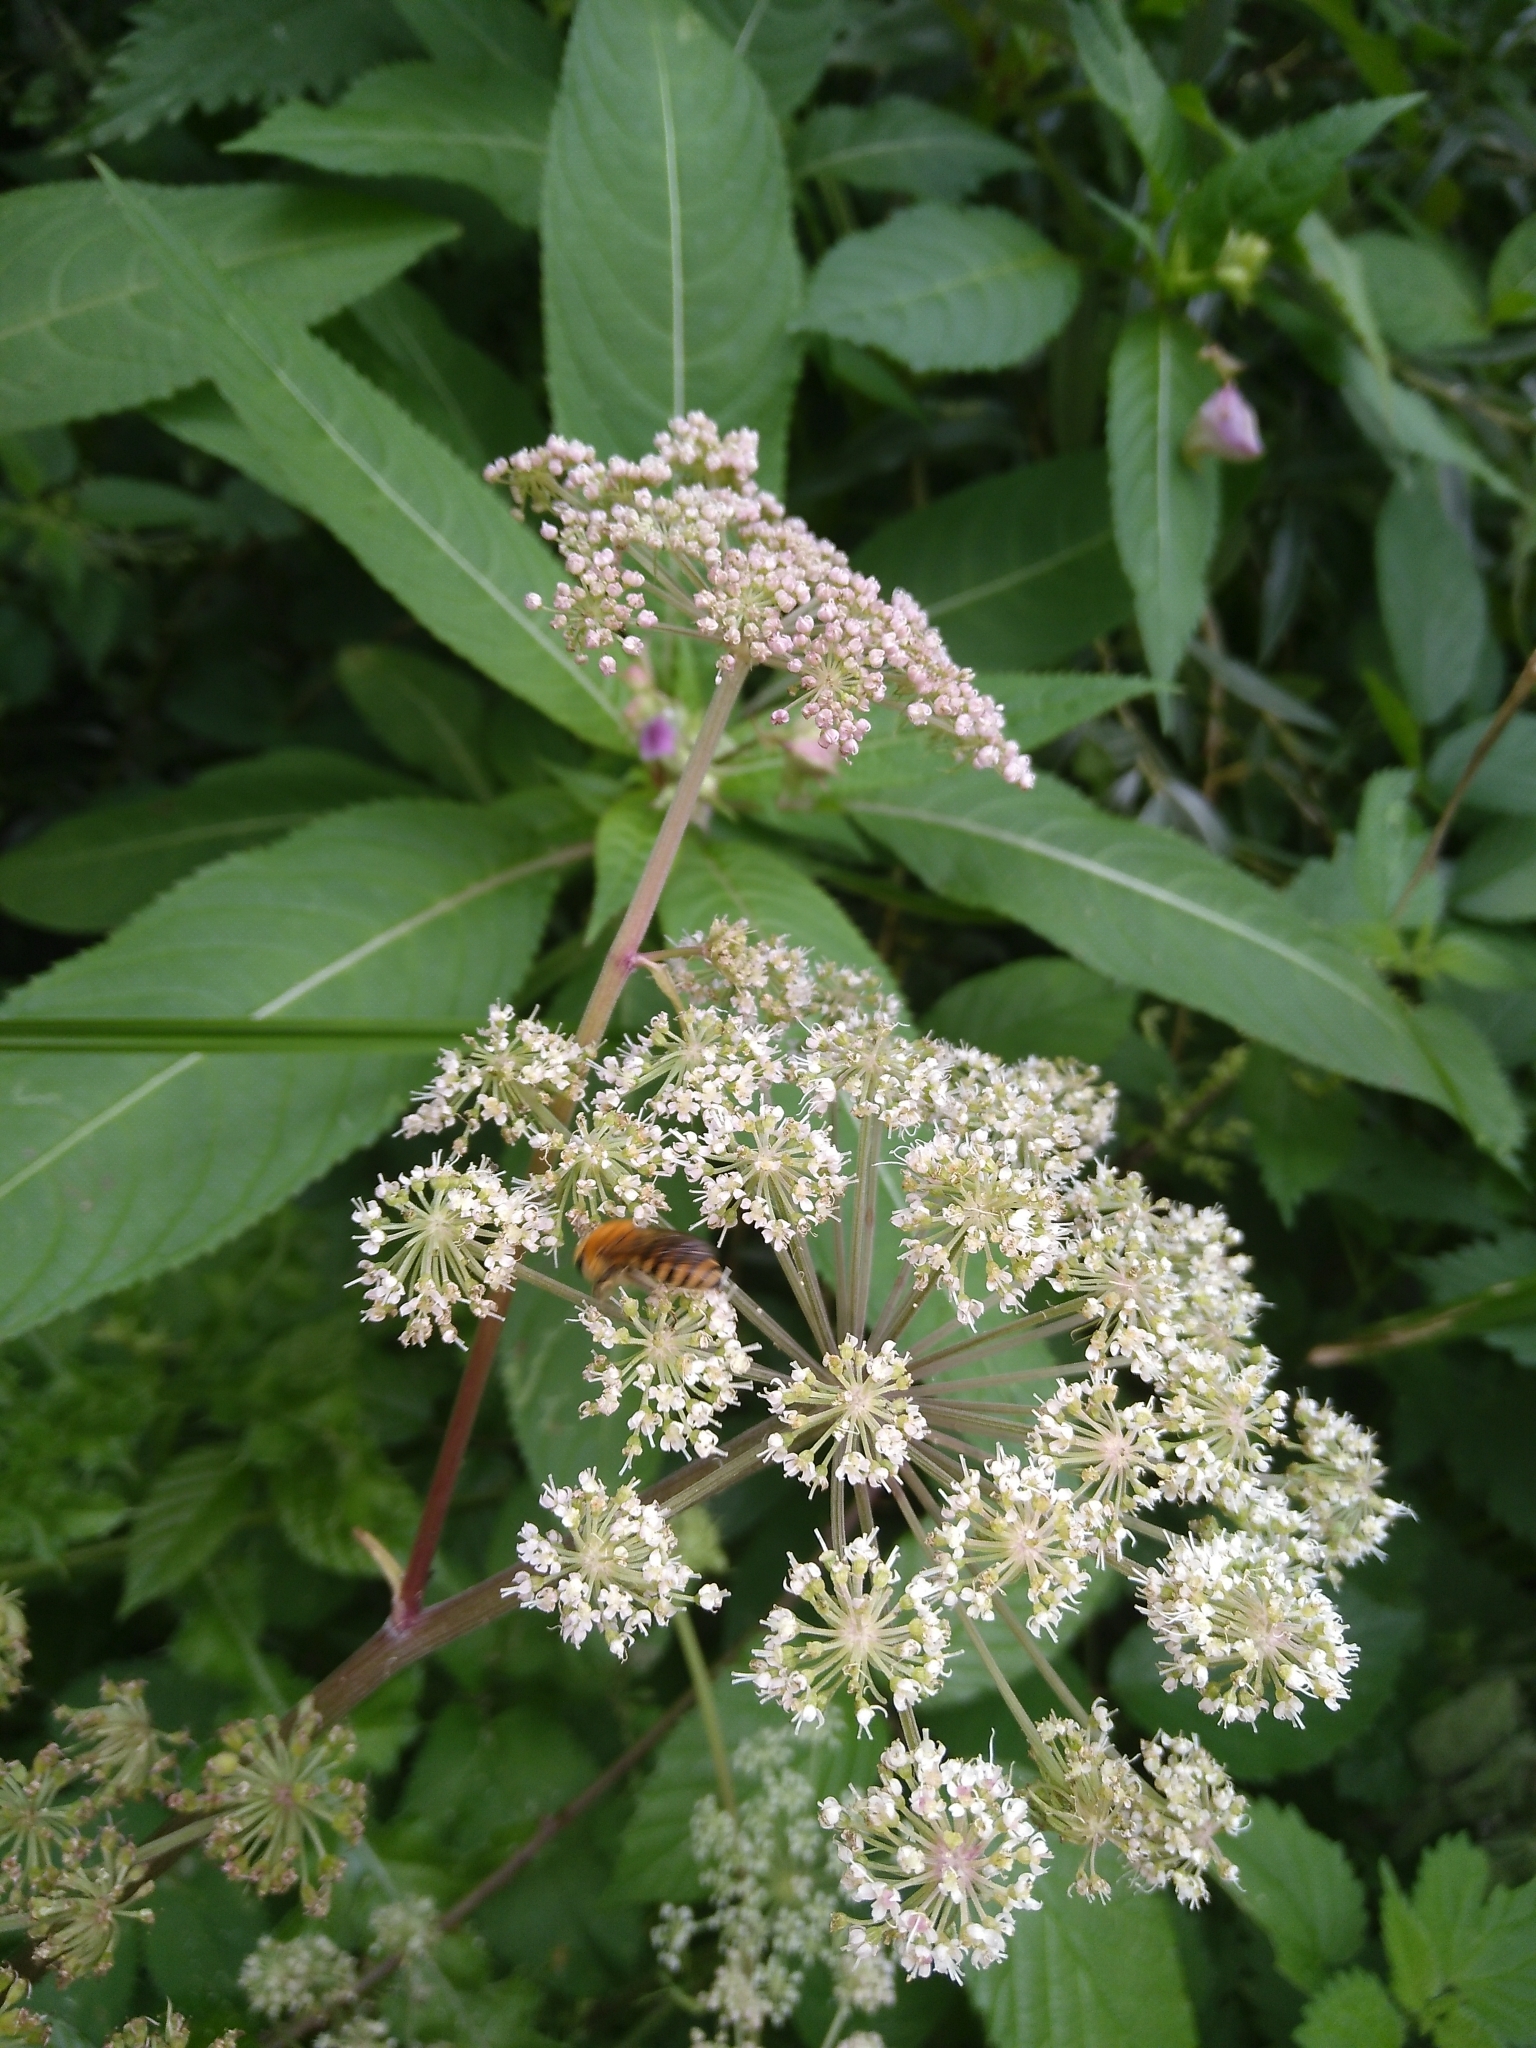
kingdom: Animalia
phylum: Arthropoda
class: Insecta
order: Hymenoptera
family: Colletidae
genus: Colletes
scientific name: Colletes hederae
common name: Ivy bee
